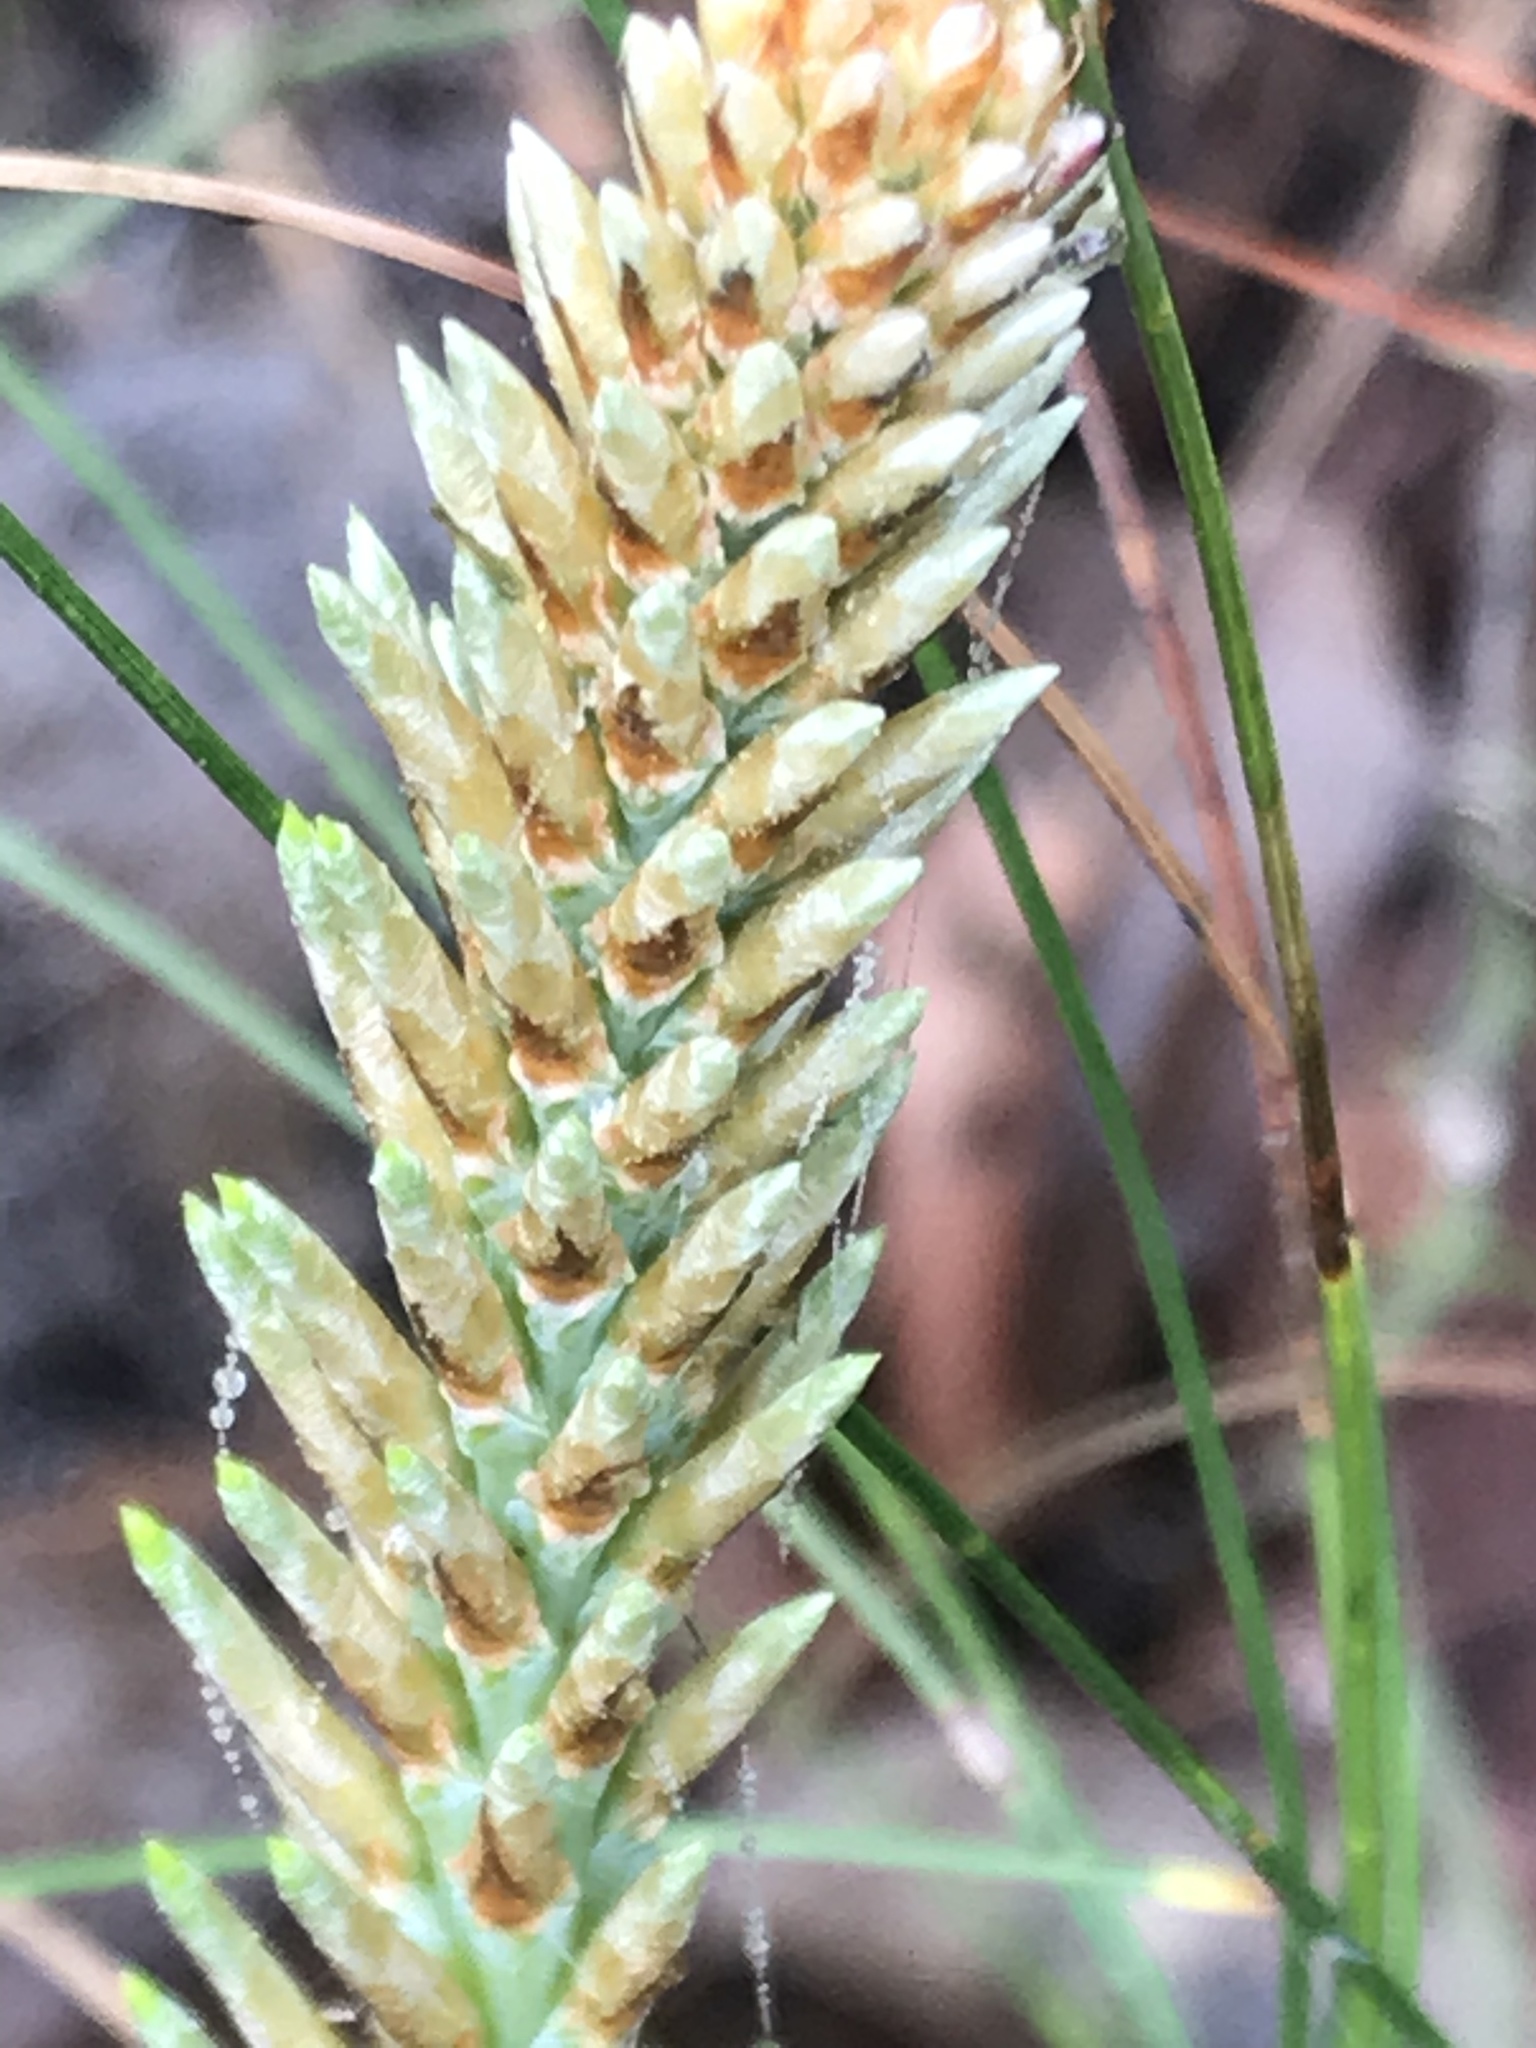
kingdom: Plantae
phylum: Tracheophyta
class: Pinopsida
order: Pinales
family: Pinaceae
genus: Pinus
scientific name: Pinus pseudostrobus
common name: False weymouth pine
